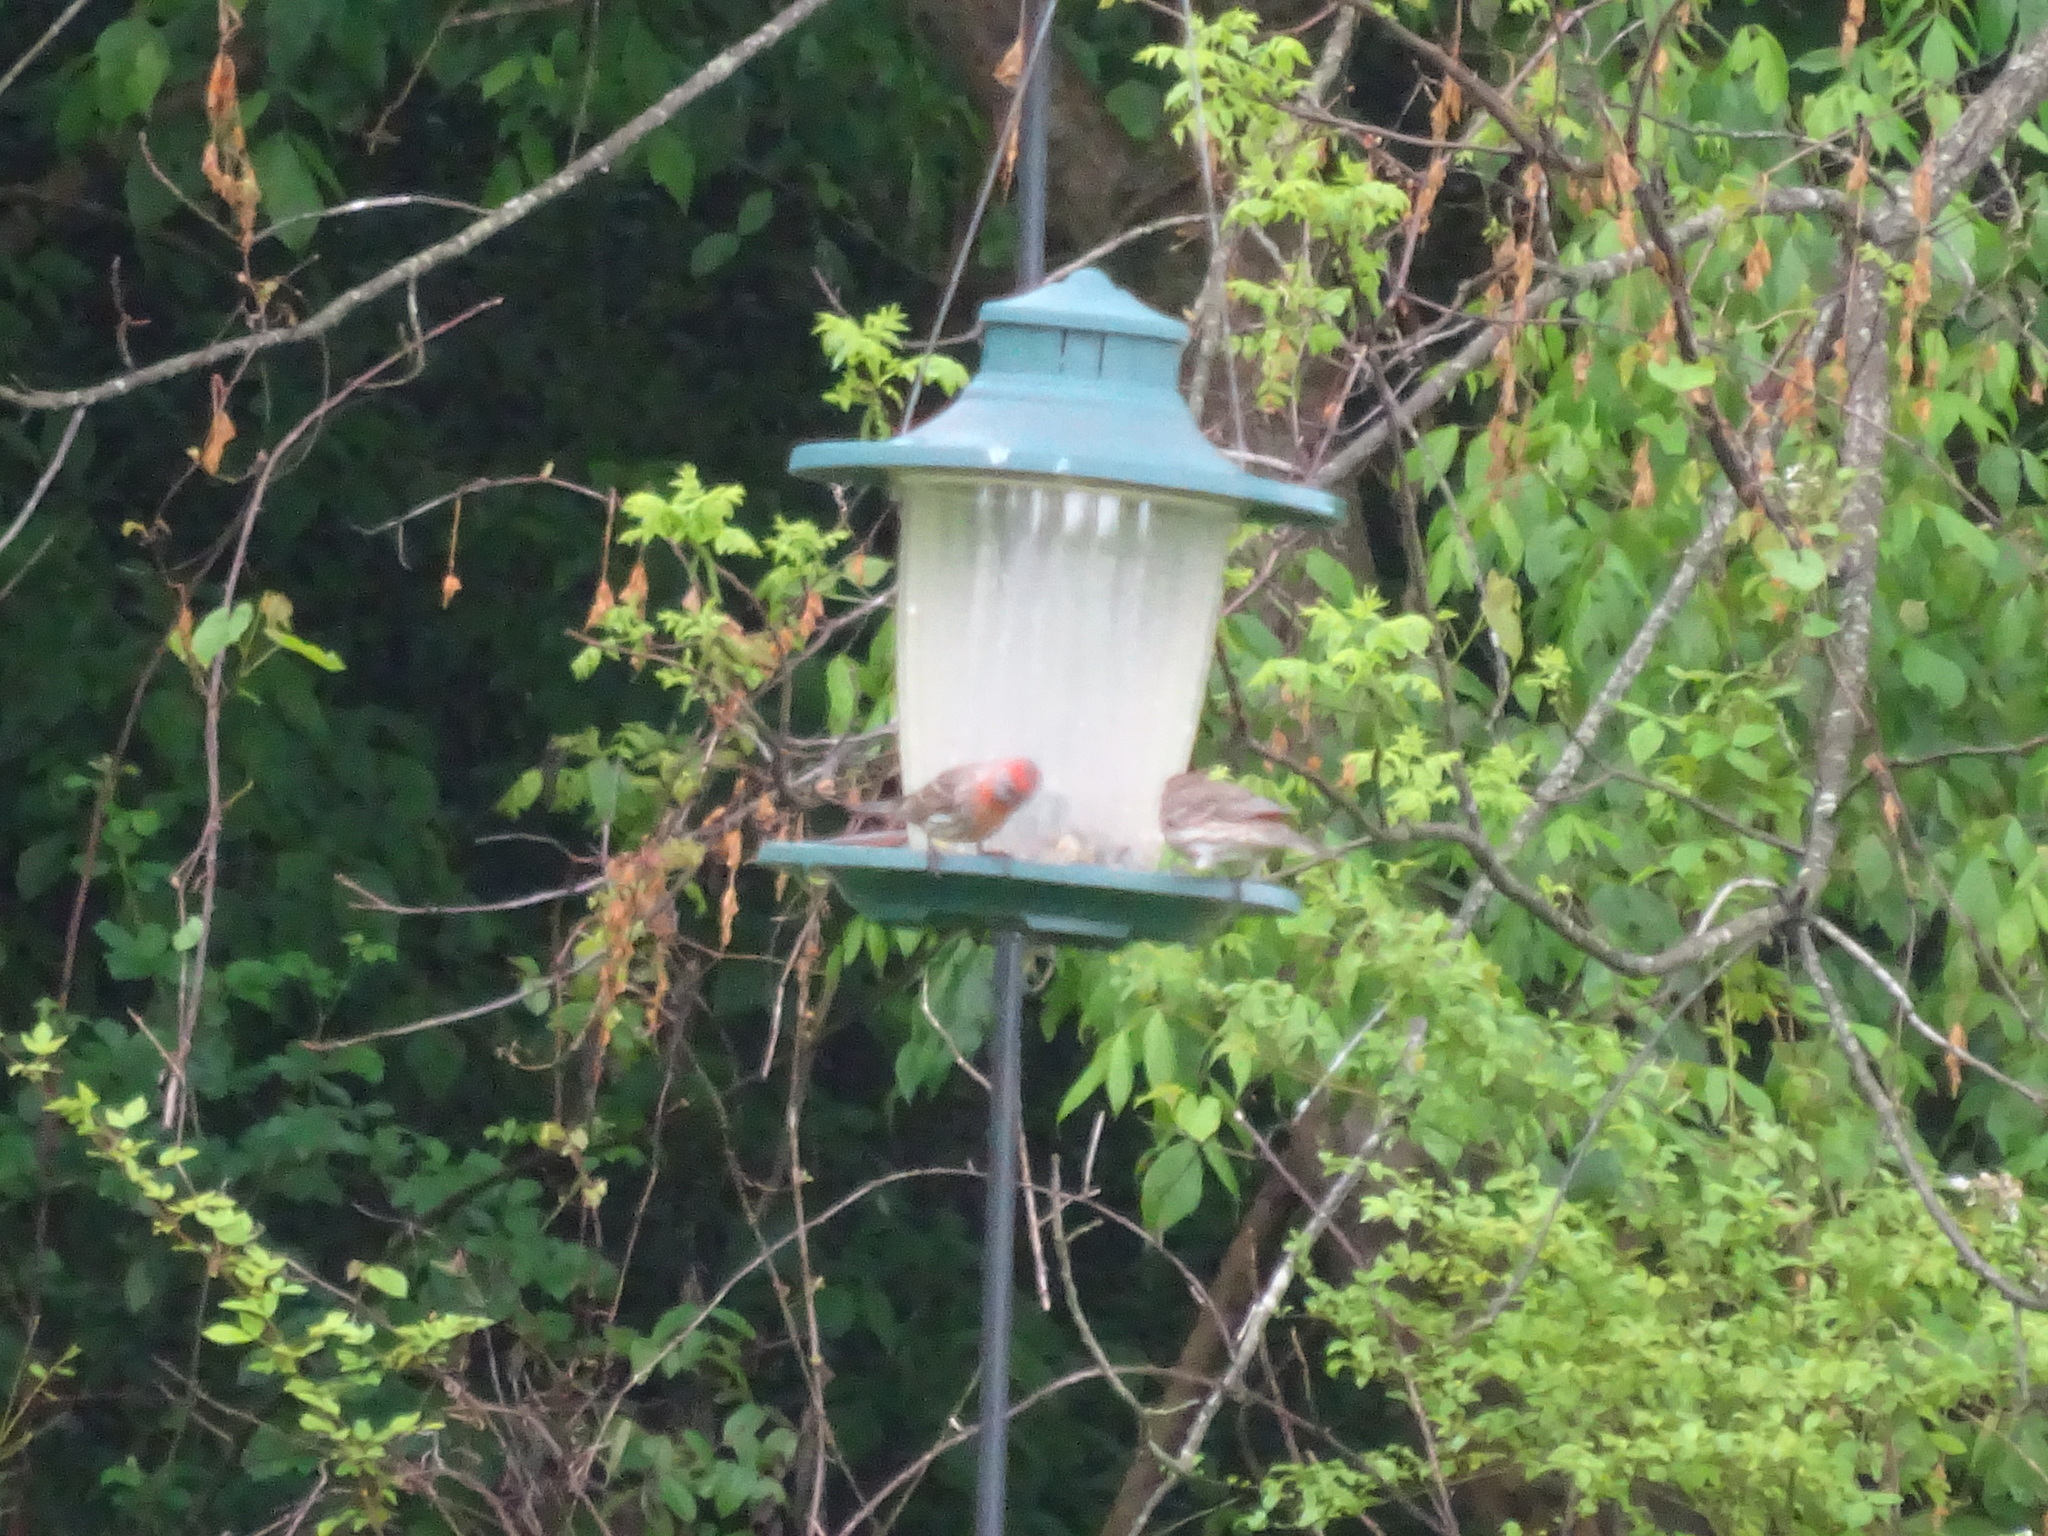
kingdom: Animalia
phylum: Chordata
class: Aves
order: Passeriformes
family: Fringillidae
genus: Haemorhous
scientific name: Haemorhous mexicanus
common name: House finch
